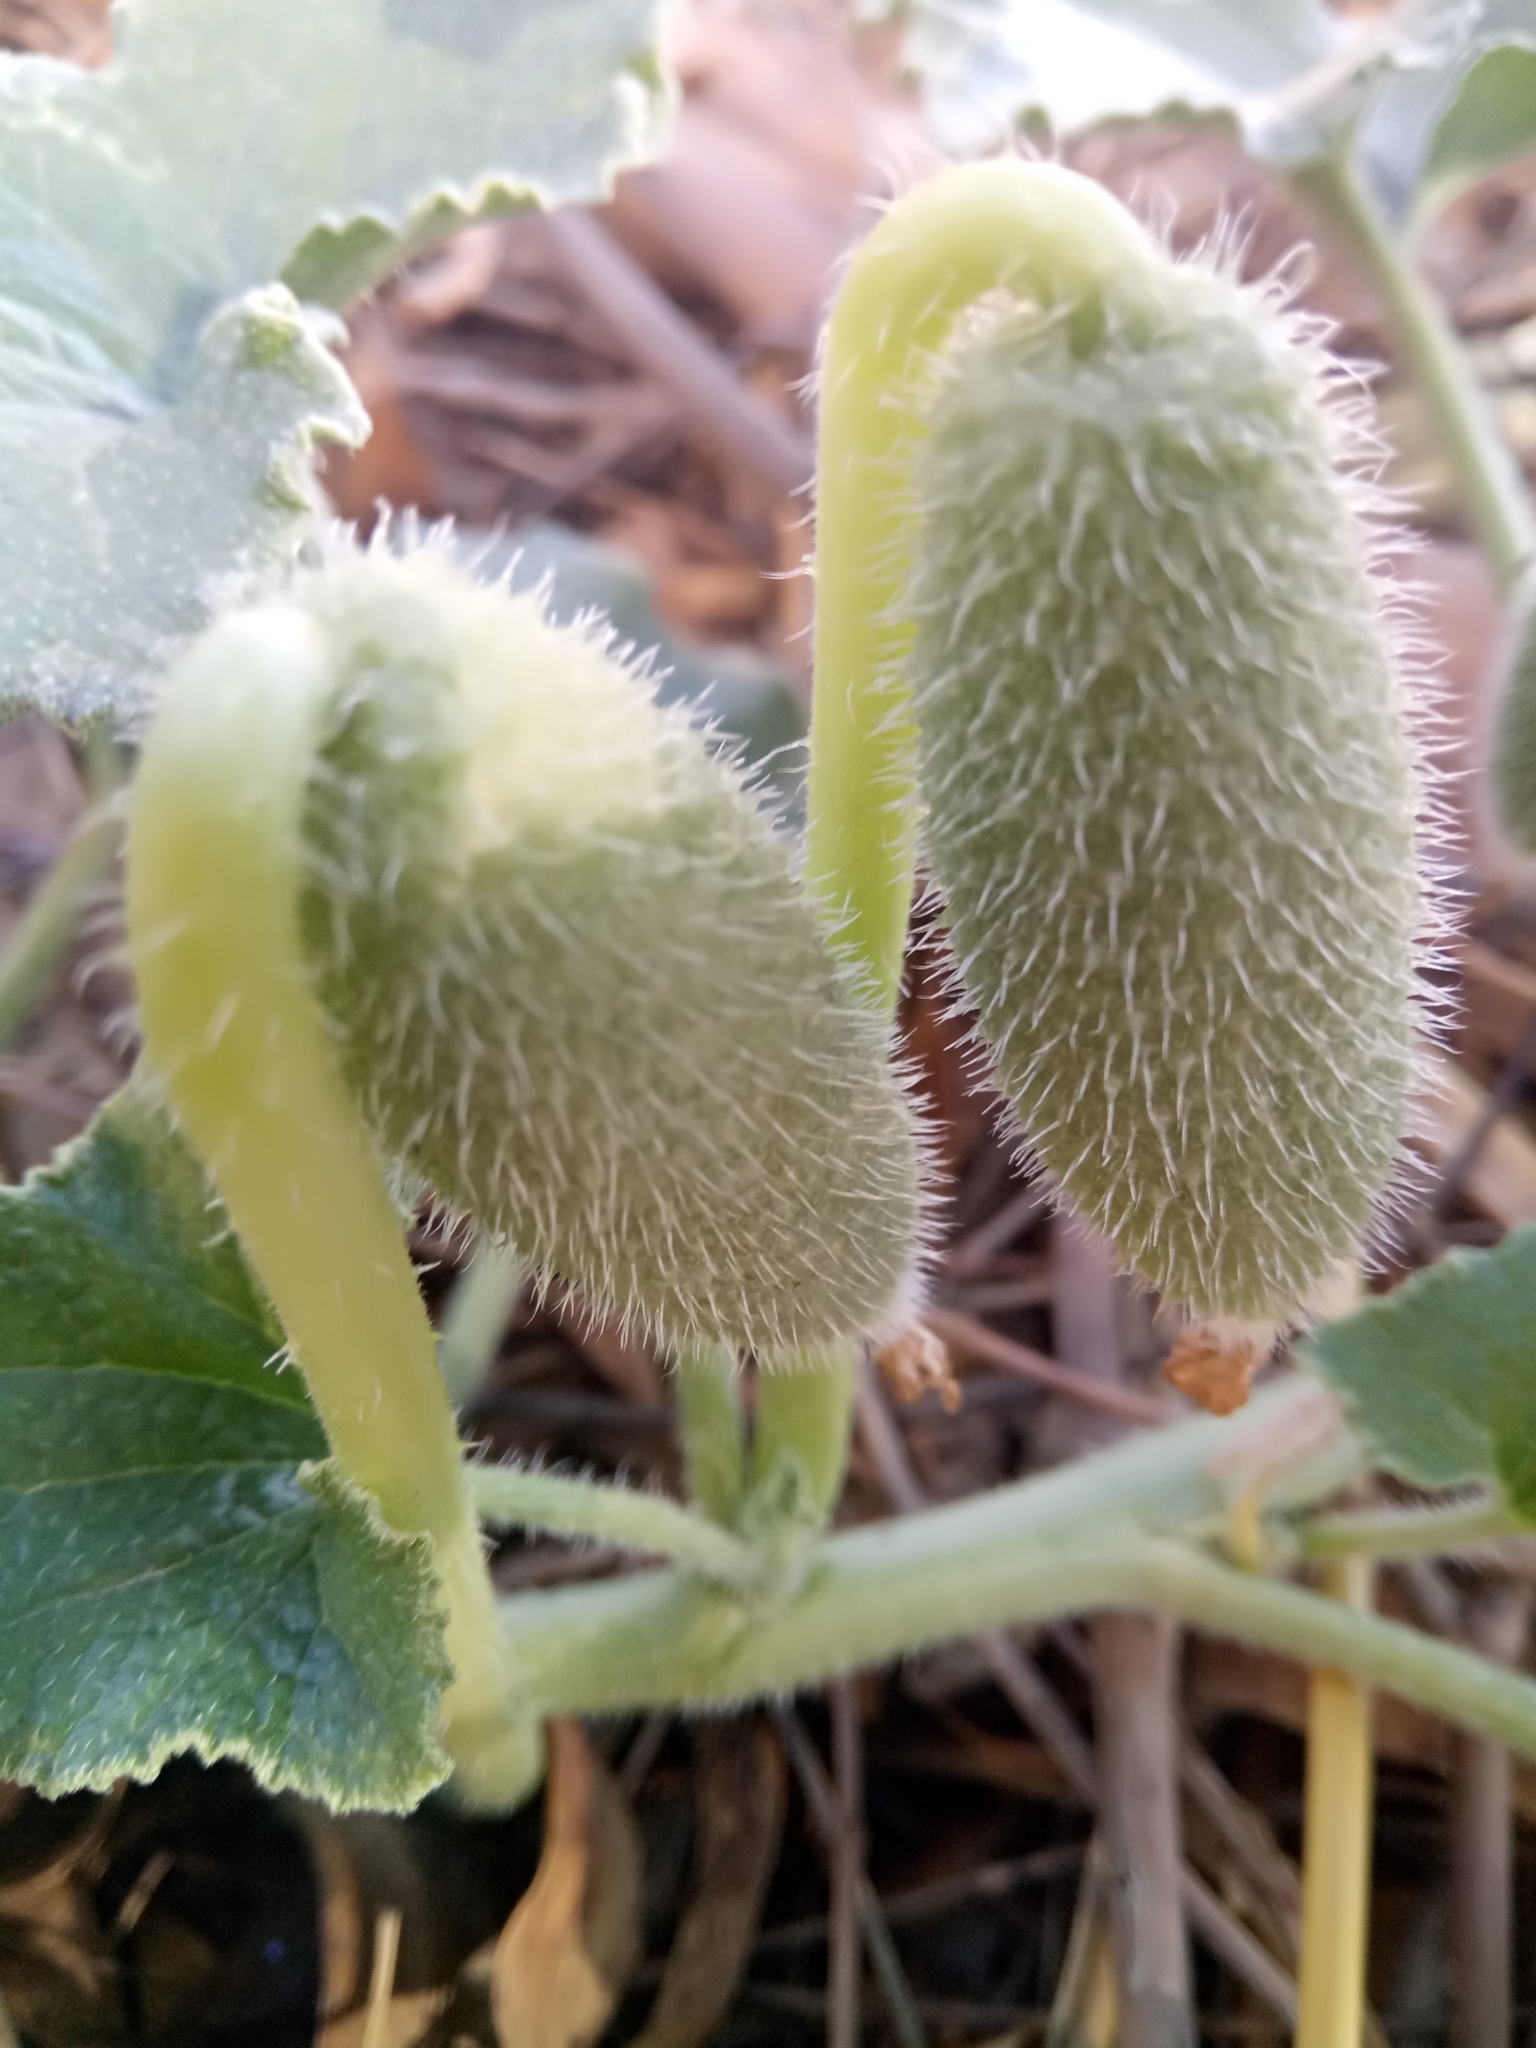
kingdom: Plantae
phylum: Tracheophyta
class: Magnoliopsida
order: Cucurbitales
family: Cucurbitaceae
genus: Ecballium
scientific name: Ecballium elaterium
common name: Squirting cucumber
